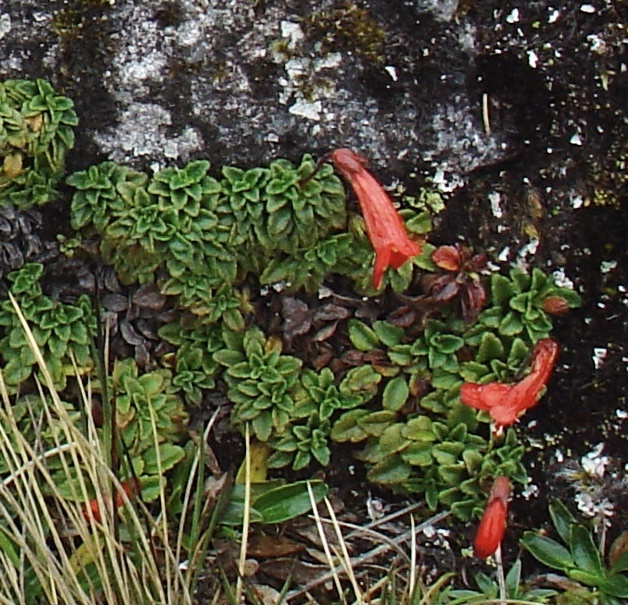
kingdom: Plantae
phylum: Tracheophyta
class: Magnoliopsida
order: Lamiales
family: Plantaginaceae
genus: Ourisia
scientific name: Ourisia chamaedrifolia
